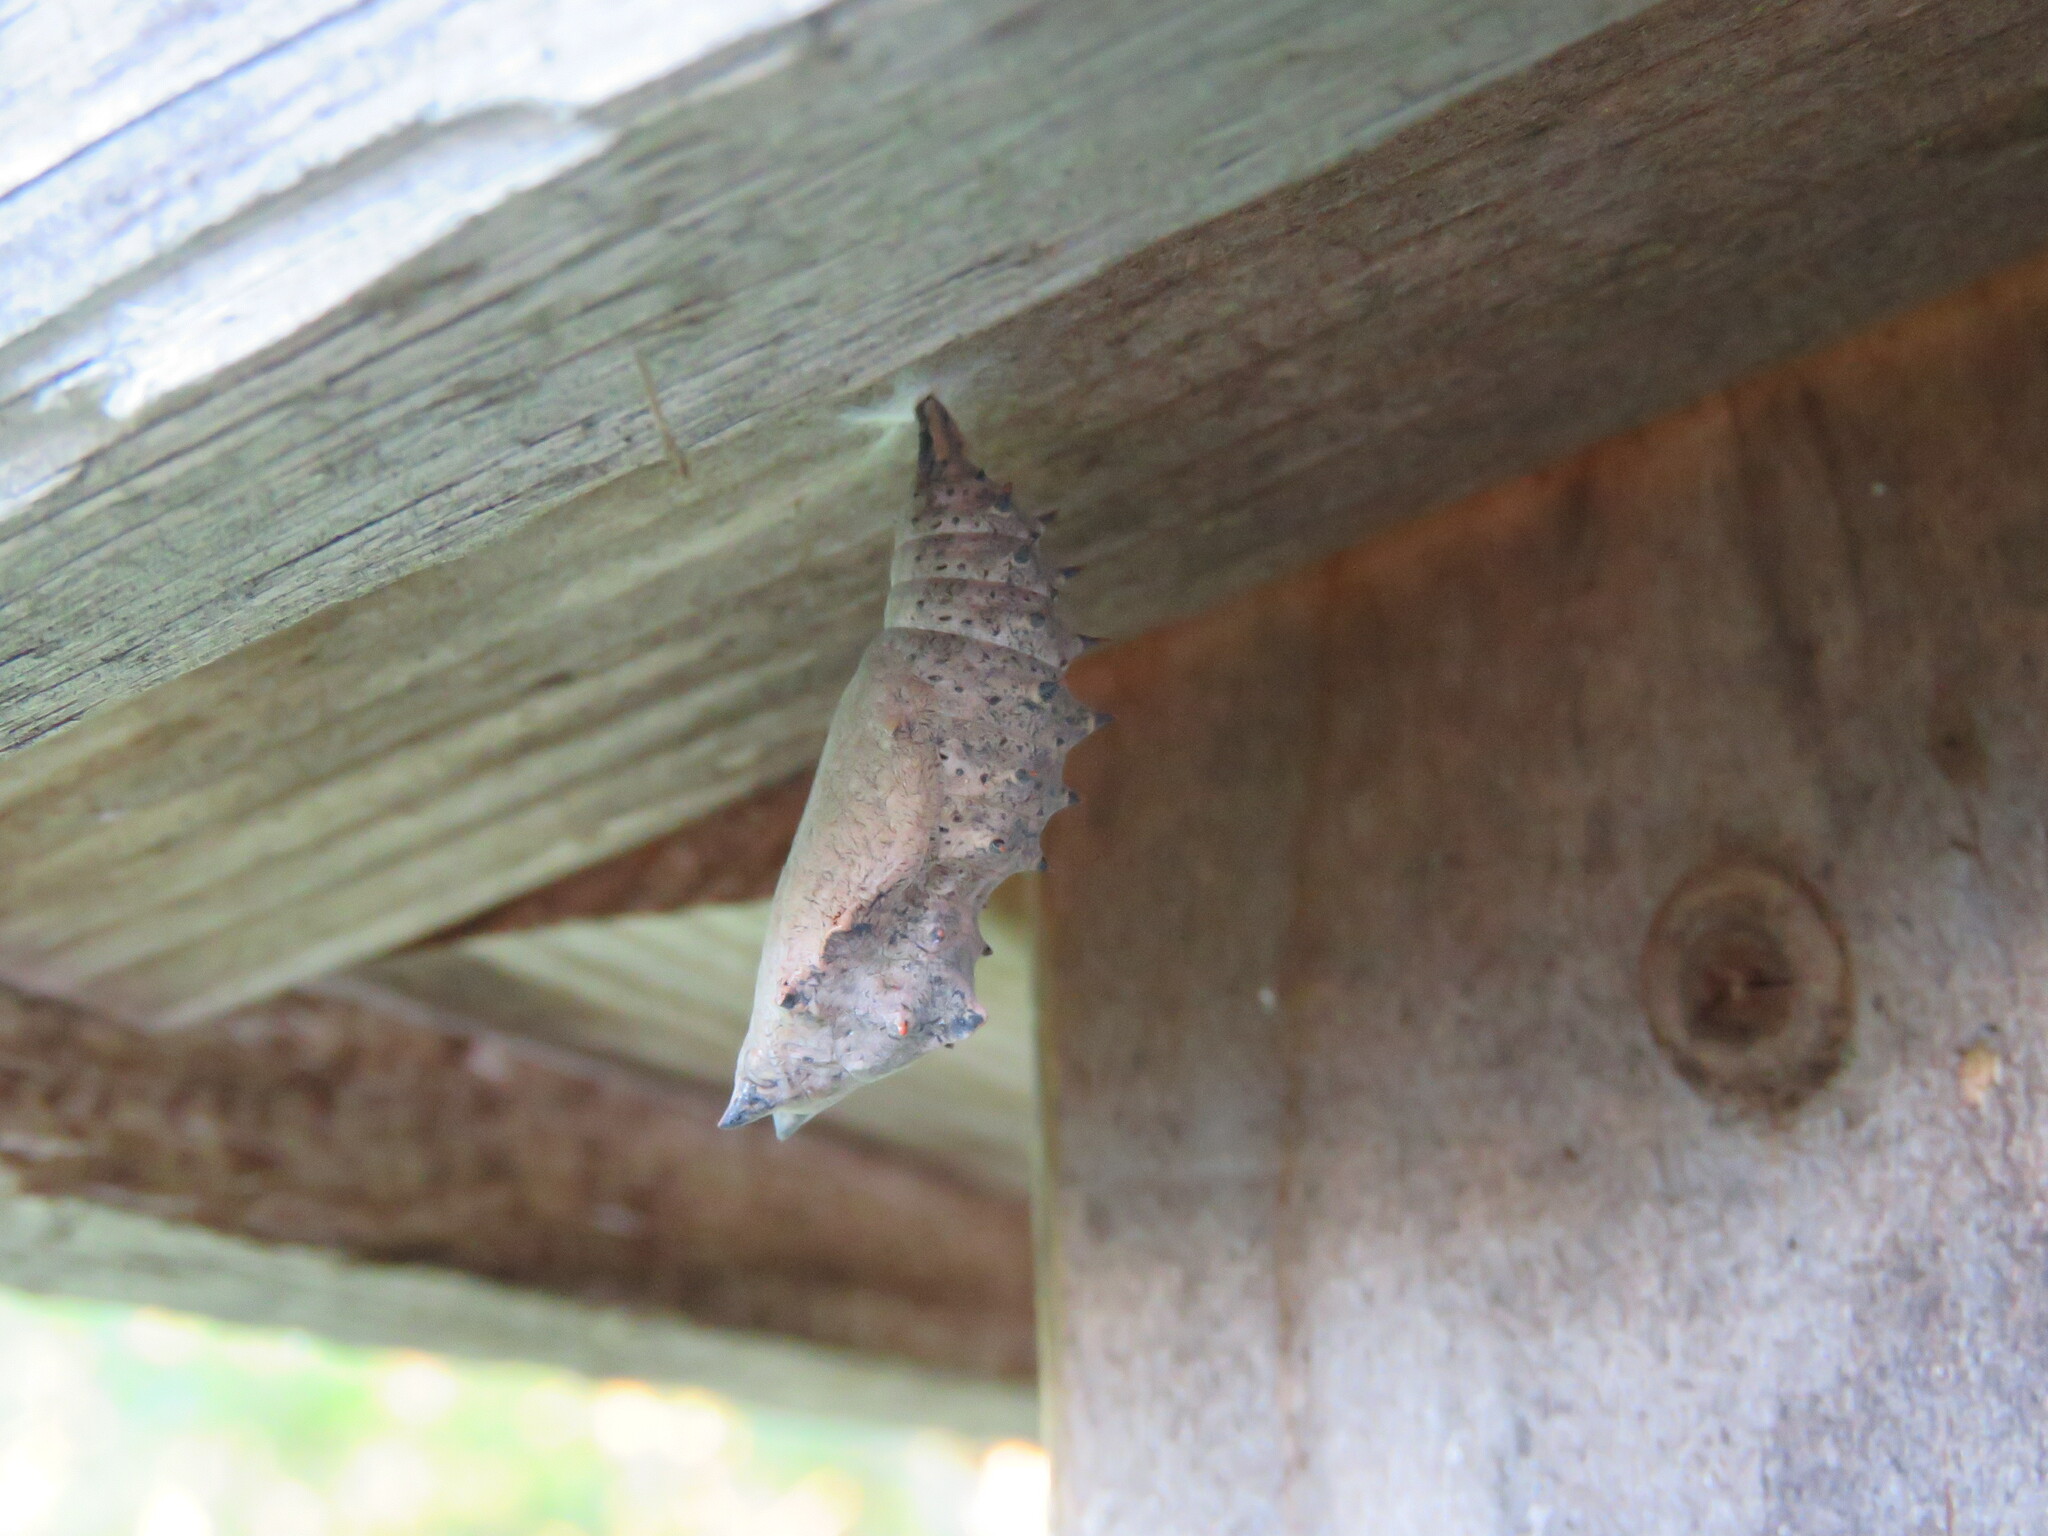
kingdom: Animalia
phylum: Arthropoda
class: Insecta
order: Lepidoptera
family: Nymphalidae
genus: Nymphalis
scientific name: Nymphalis antiopa
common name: Camberwell beauty
